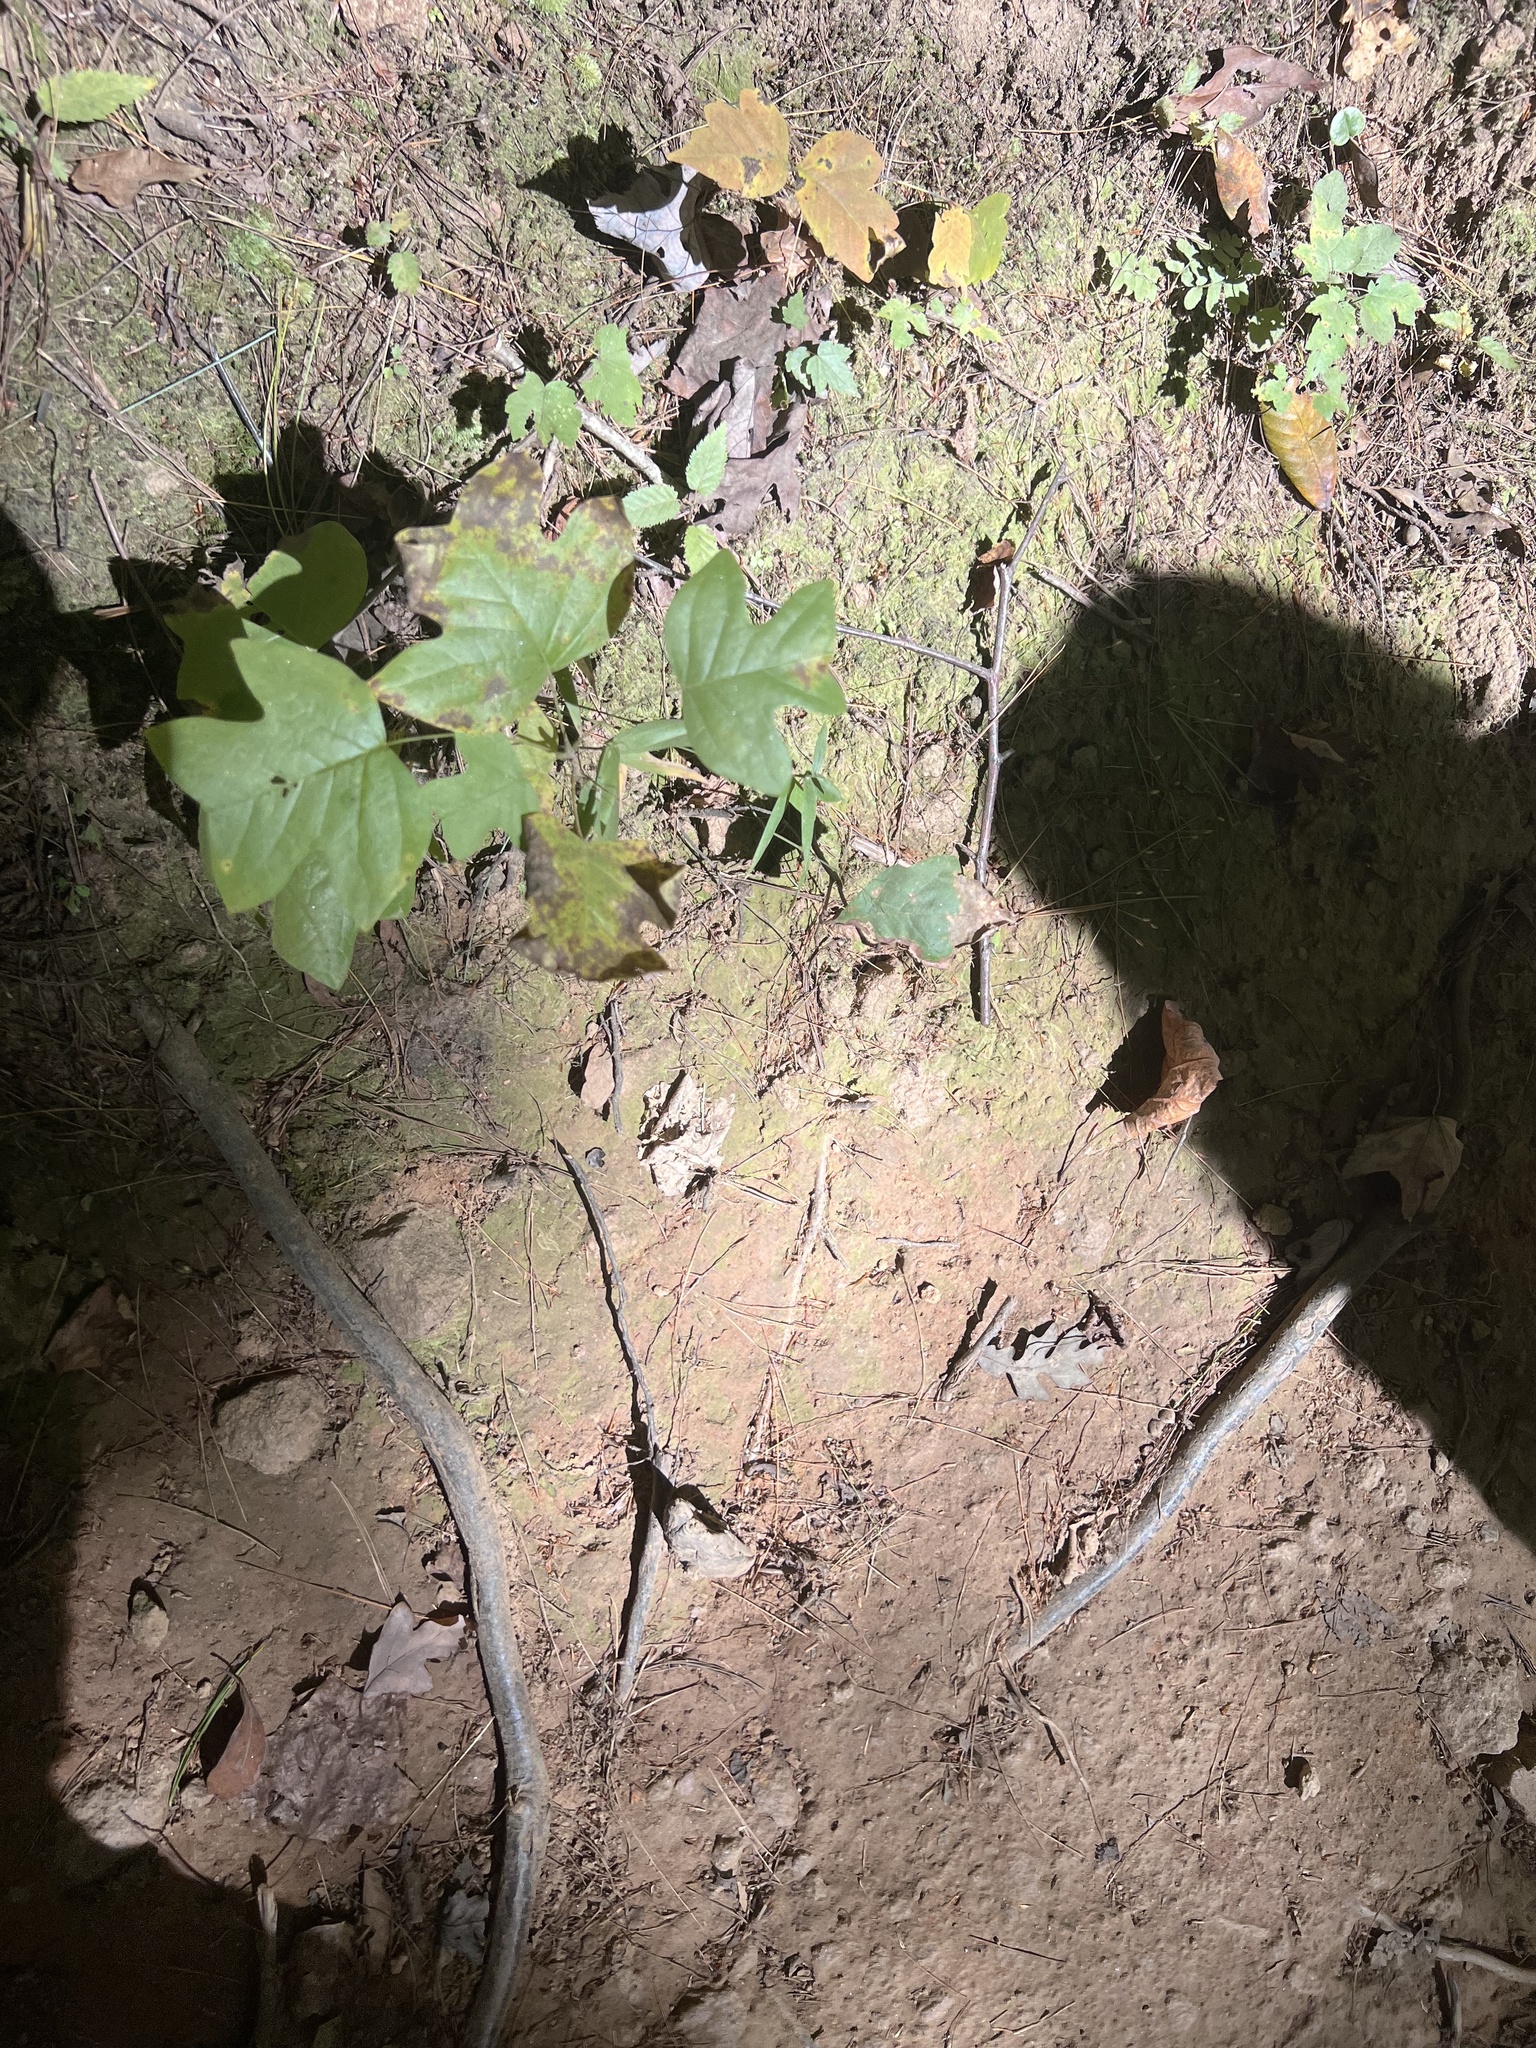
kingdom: Plantae
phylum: Tracheophyta
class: Magnoliopsida
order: Magnoliales
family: Magnoliaceae
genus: Liriodendron
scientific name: Liriodendron tulipifera
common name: Tulip tree
